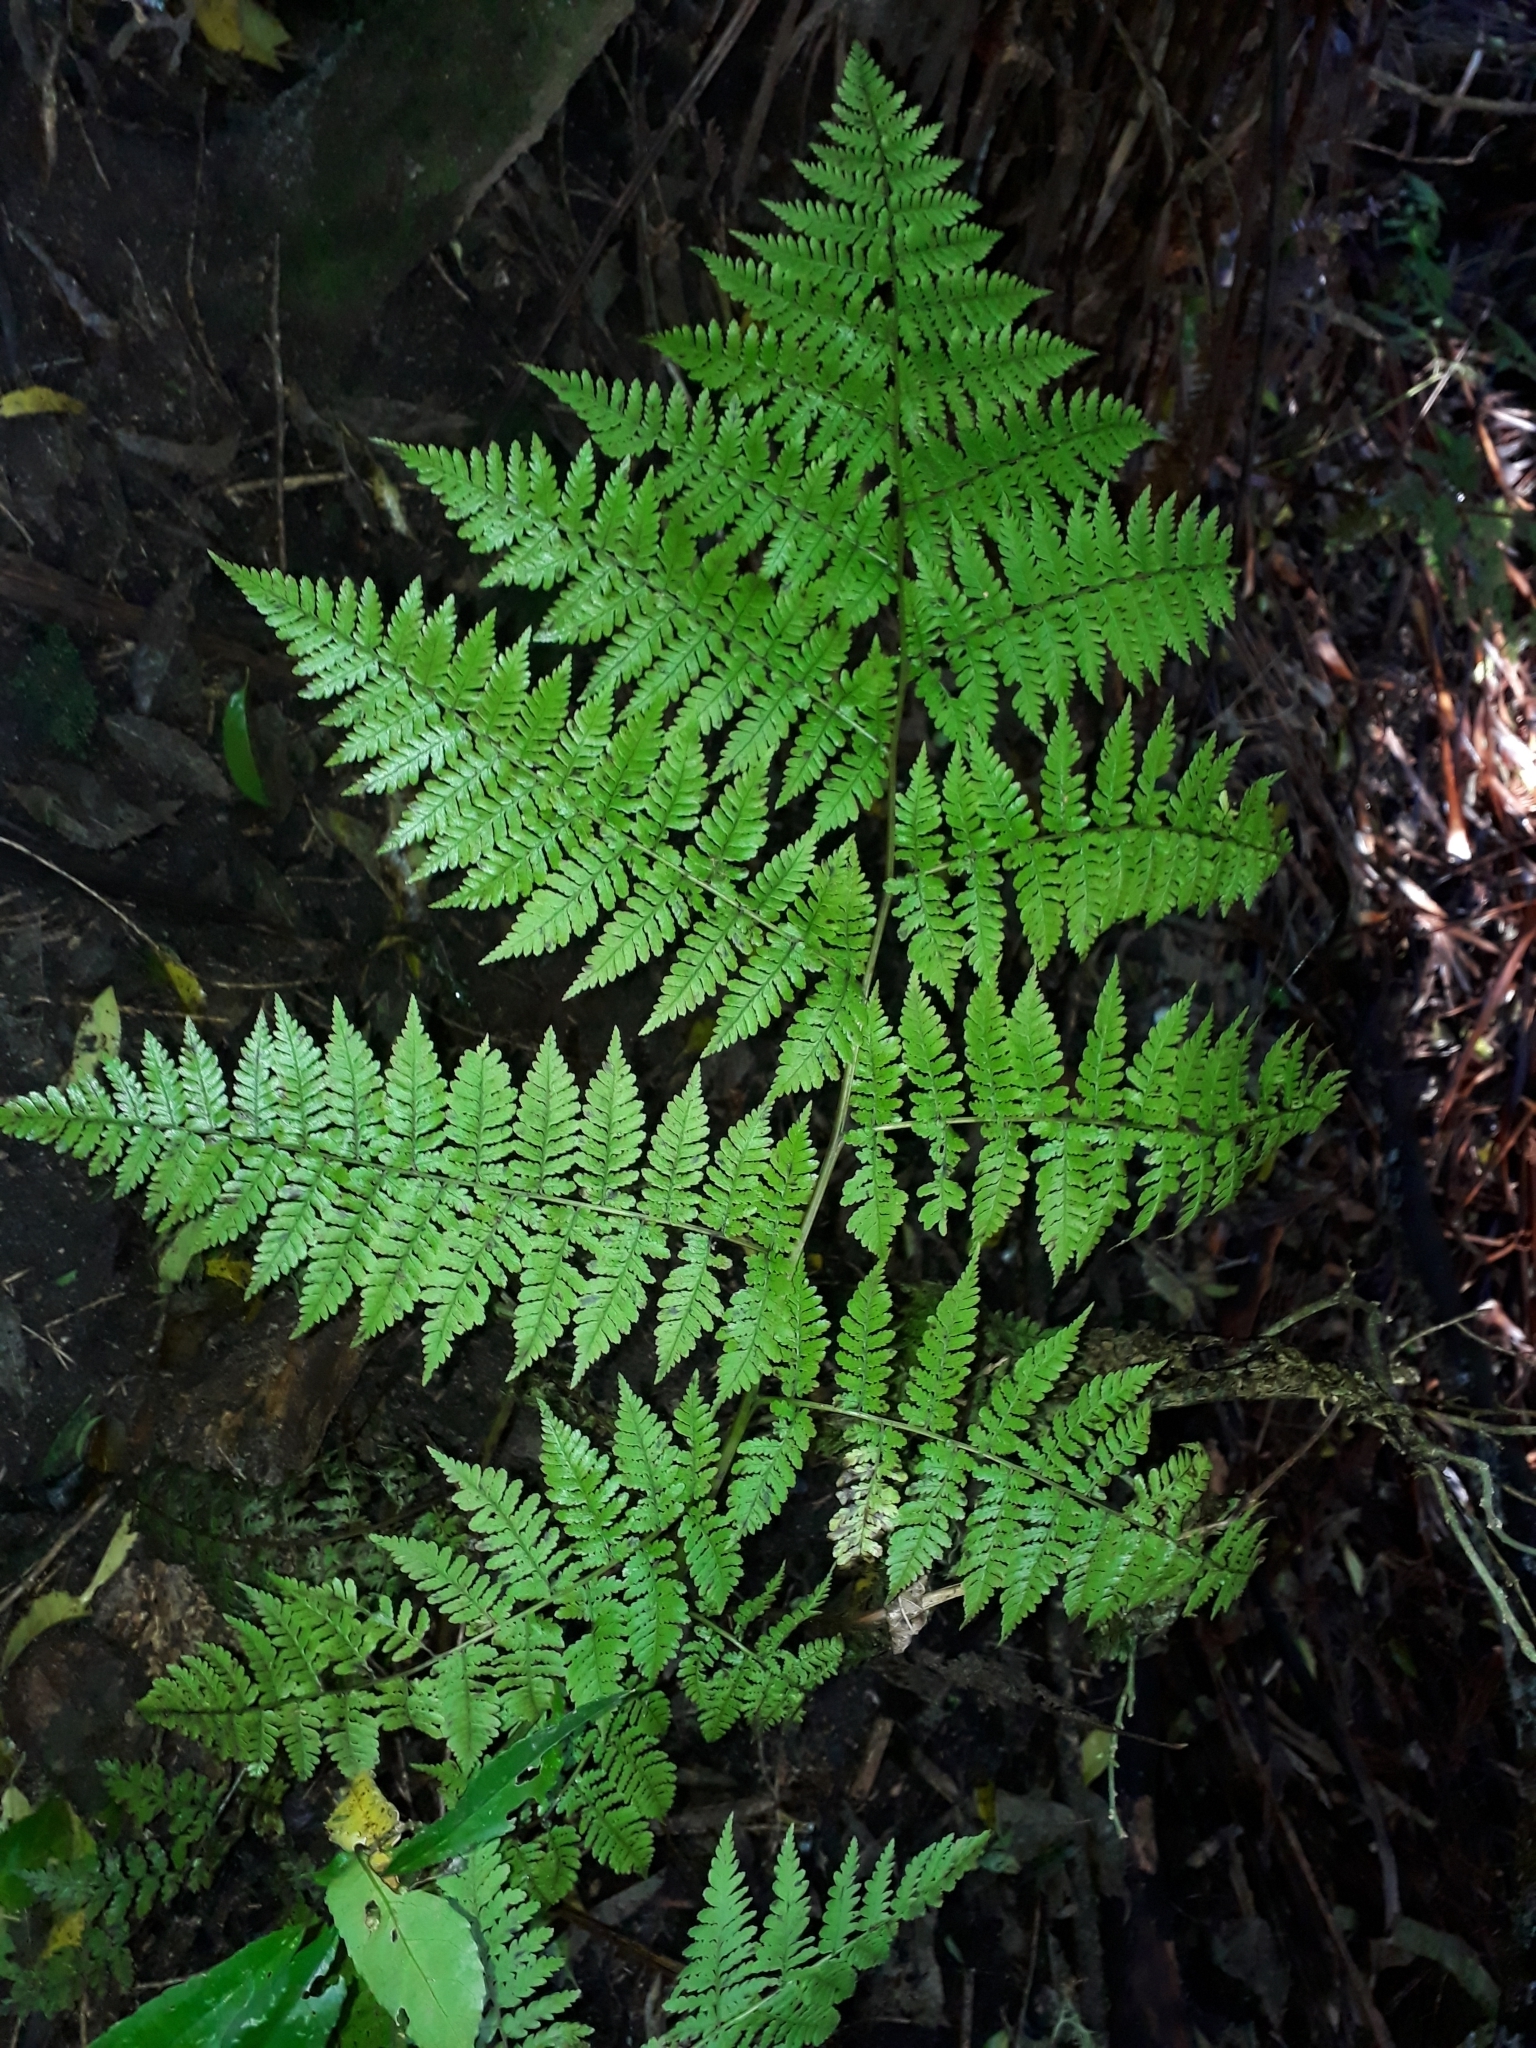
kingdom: Plantae
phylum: Tracheophyta
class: Polypodiopsida
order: Polypodiales
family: Athyriaceae
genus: Diplazium
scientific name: Diplazium australe
